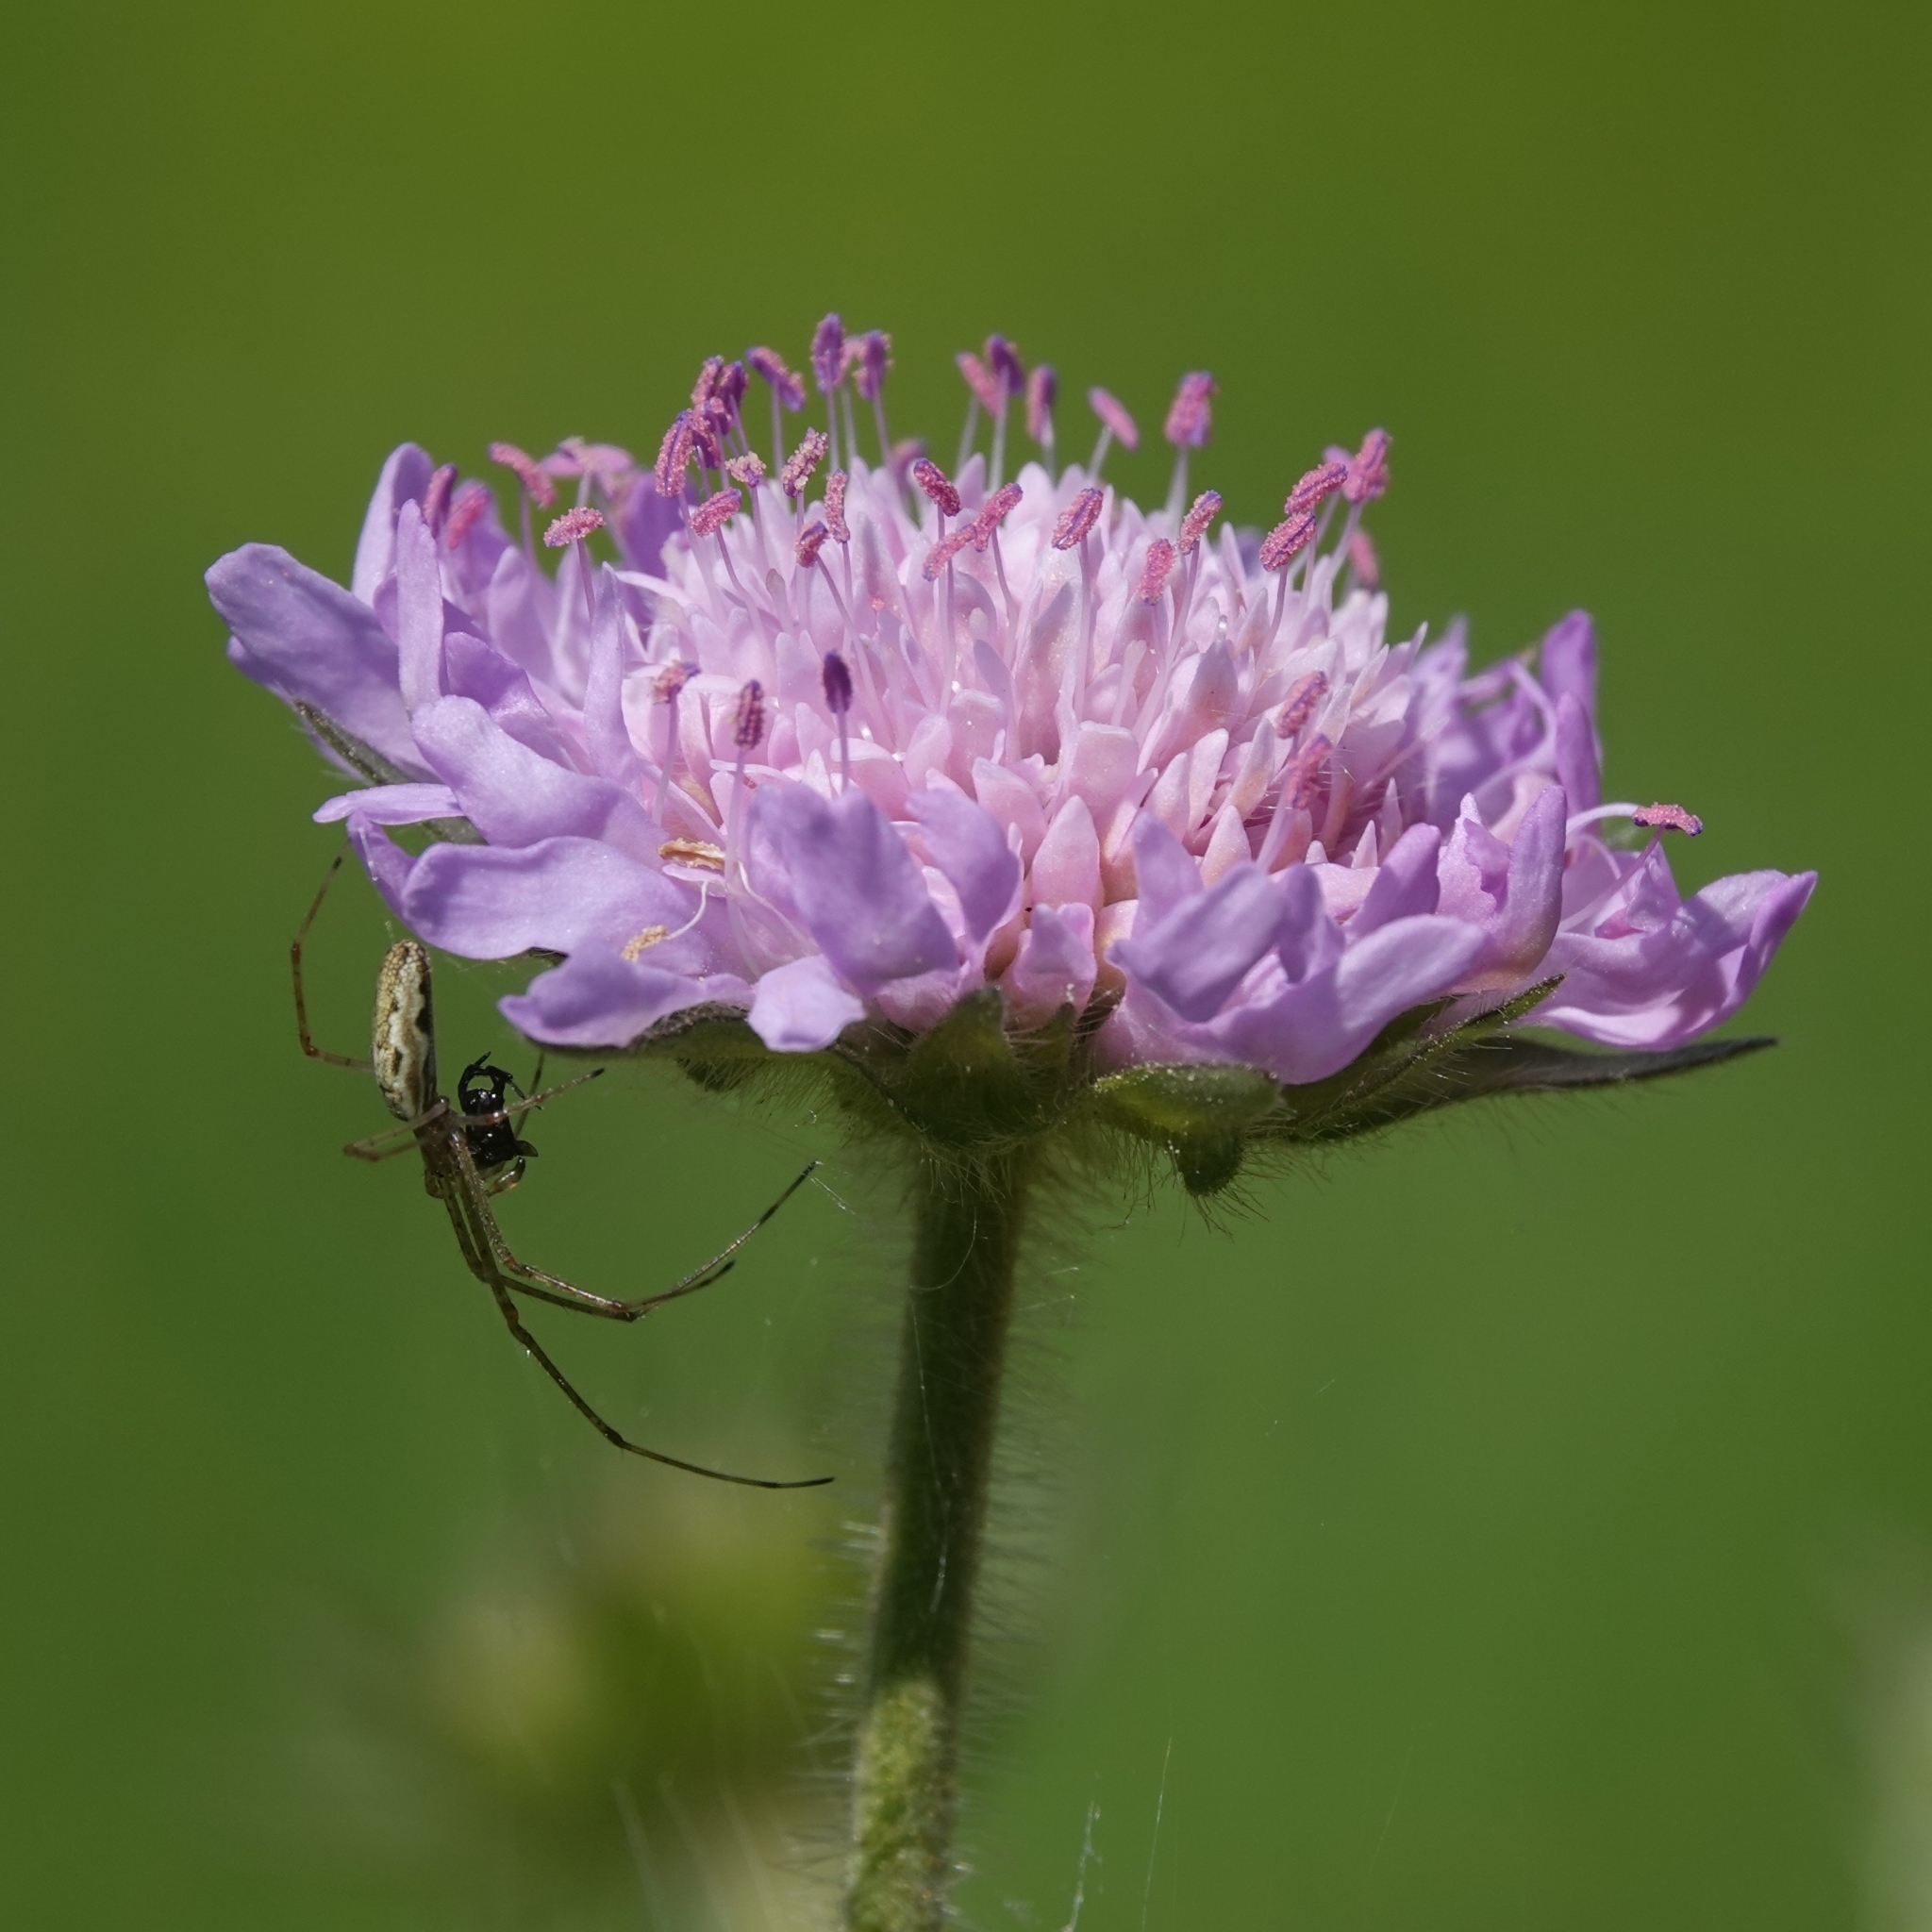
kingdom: Plantae
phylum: Tracheophyta
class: Magnoliopsida
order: Dipsacales
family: Caprifoliaceae
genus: Knautia
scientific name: Knautia arvensis
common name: Field scabiosa
